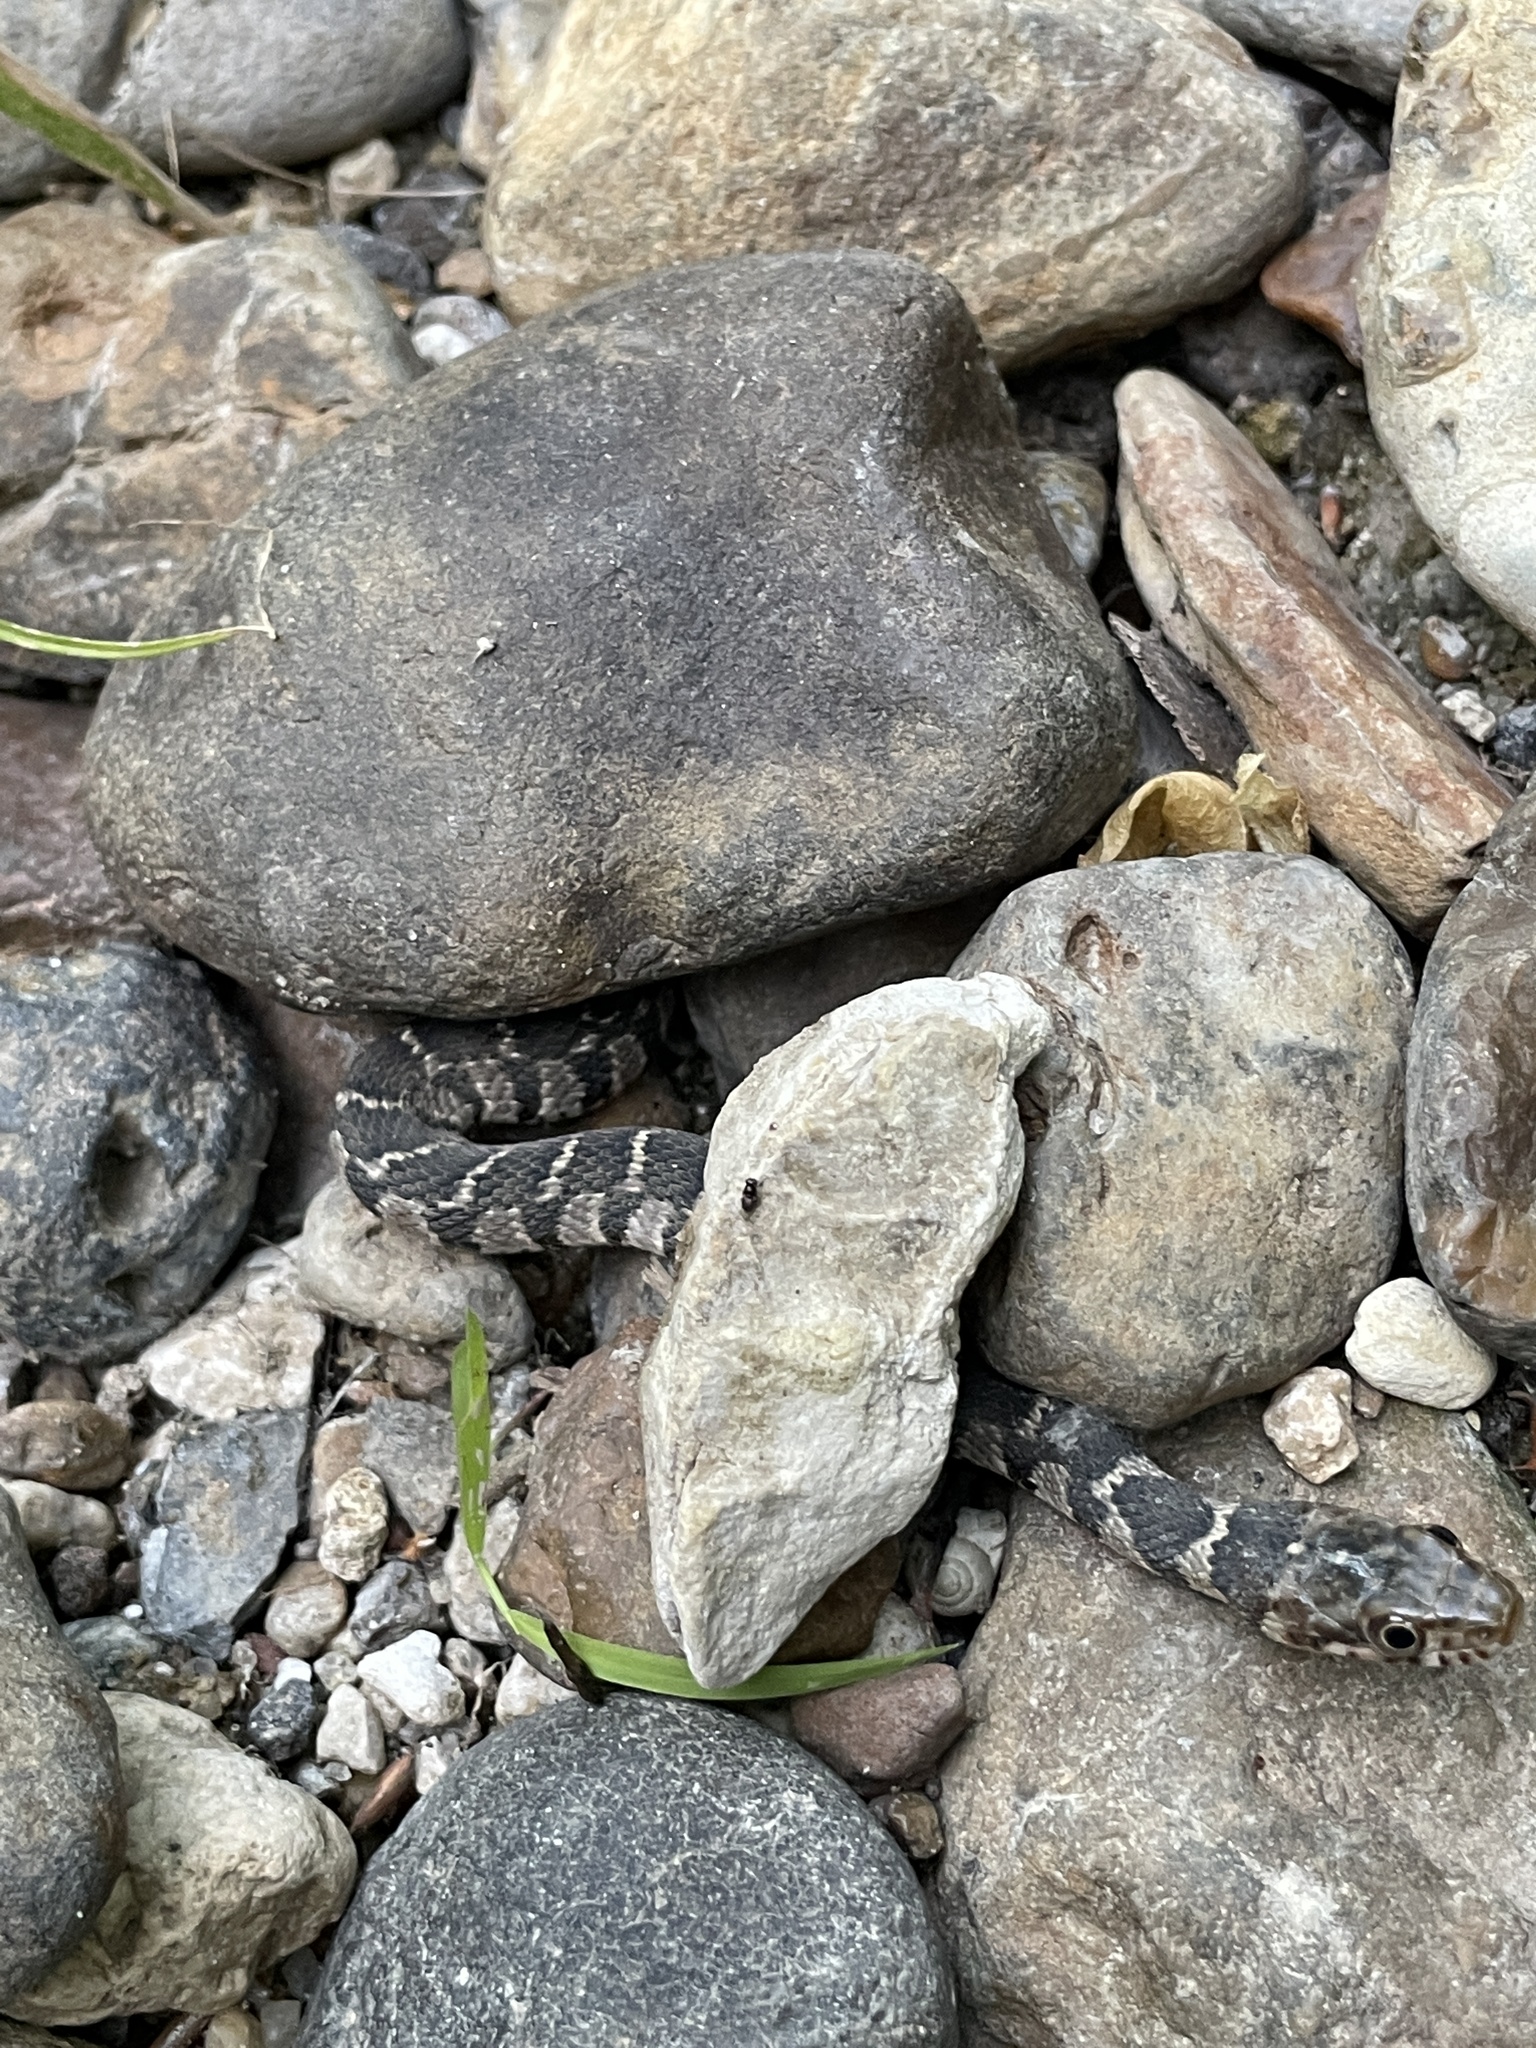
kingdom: Animalia
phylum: Chordata
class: Squamata
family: Colubridae
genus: Nerodia
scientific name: Nerodia erythrogaster
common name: Plainbelly water snake
